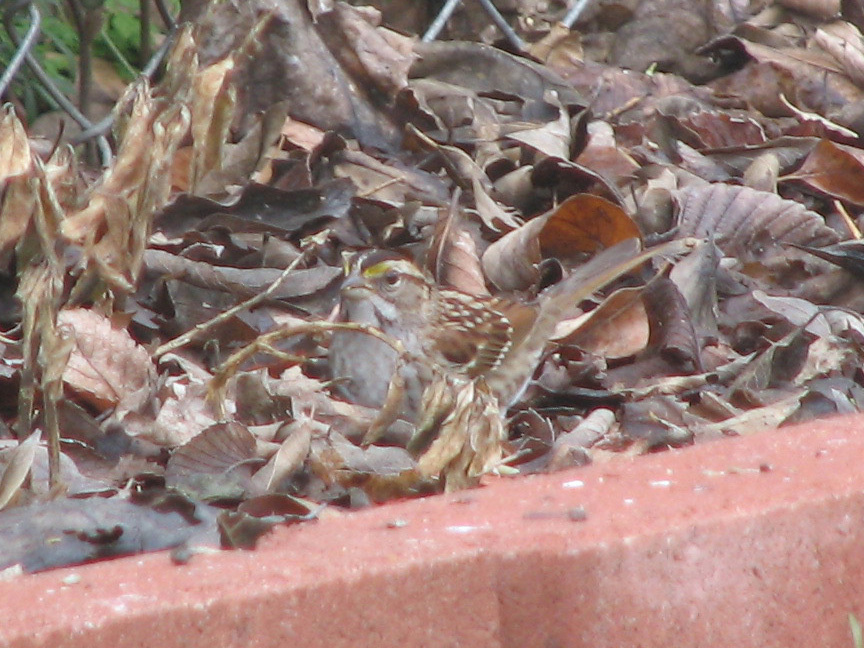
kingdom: Animalia
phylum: Chordata
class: Aves
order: Passeriformes
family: Passerellidae
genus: Zonotrichia
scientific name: Zonotrichia albicollis
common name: White-throated sparrow
